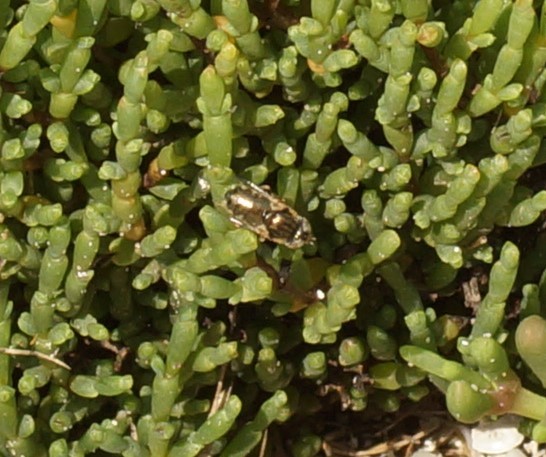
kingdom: Animalia
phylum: Arthropoda
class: Insecta
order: Diptera
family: Syrphidae
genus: Eristalinus
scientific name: Eristalinus aeneus
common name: Syrphid fly
